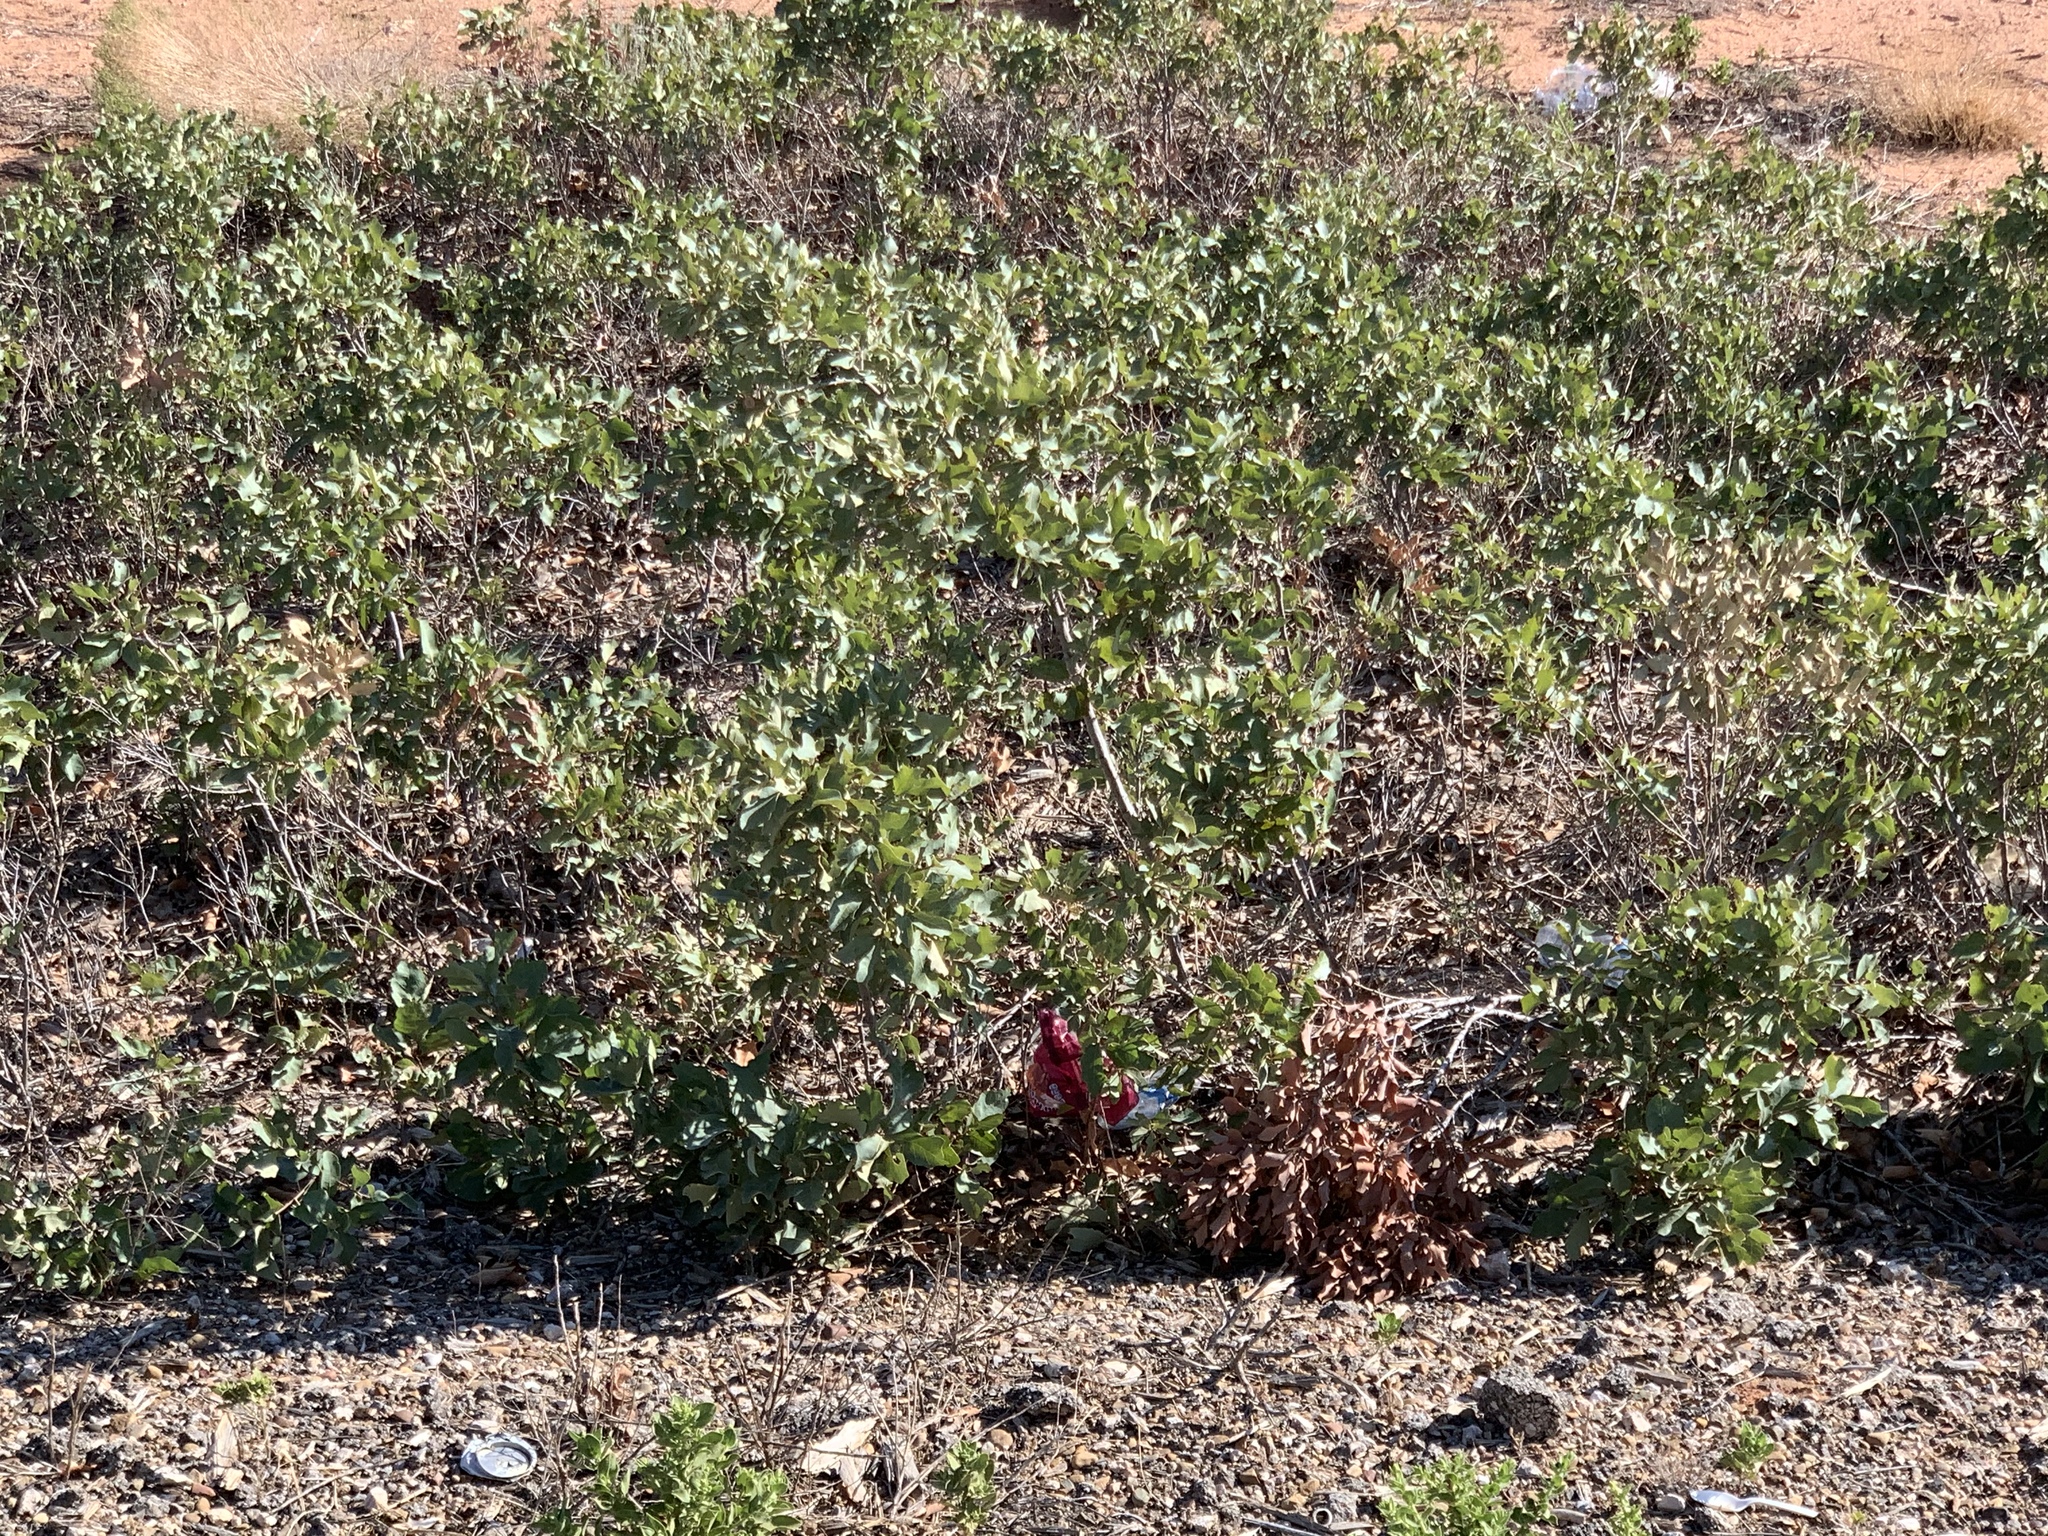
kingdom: Plantae
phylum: Tracheophyta
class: Magnoliopsida
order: Fagales
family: Fagaceae
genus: Quercus
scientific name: Quercus havardii
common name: Shinnery oak
